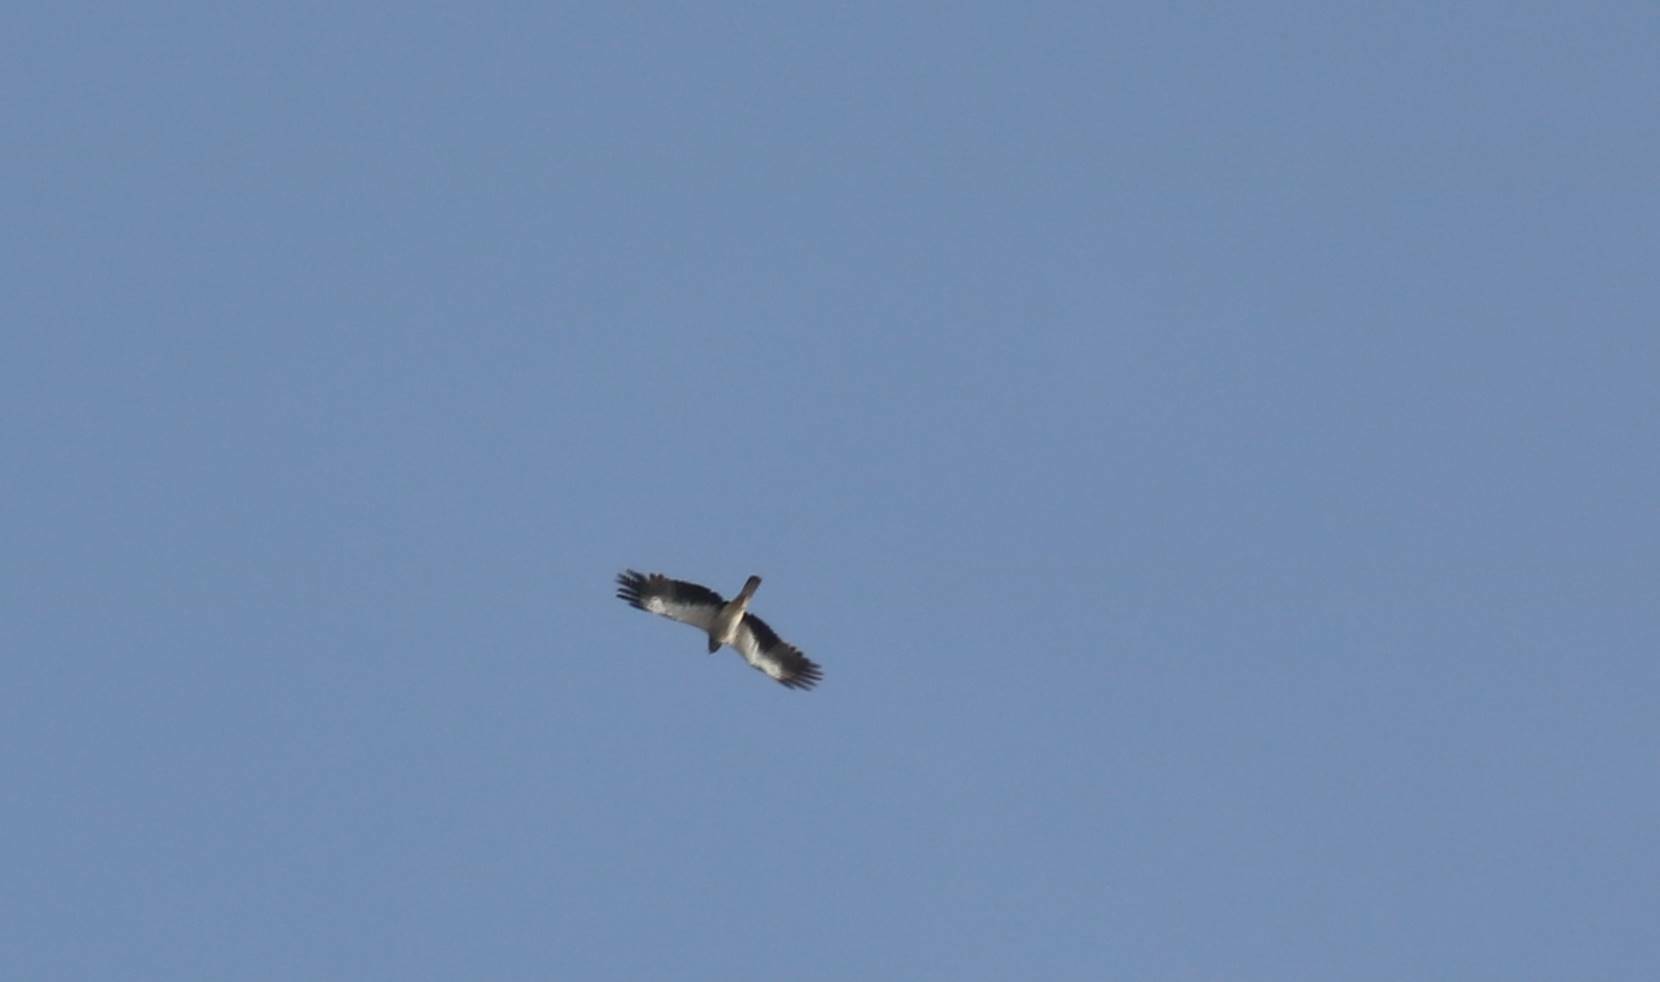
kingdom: Animalia
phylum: Chordata
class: Aves
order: Accipitriformes
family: Accipitridae
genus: Hieraaetus
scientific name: Hieraaetus pennatus
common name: Booted eagle
